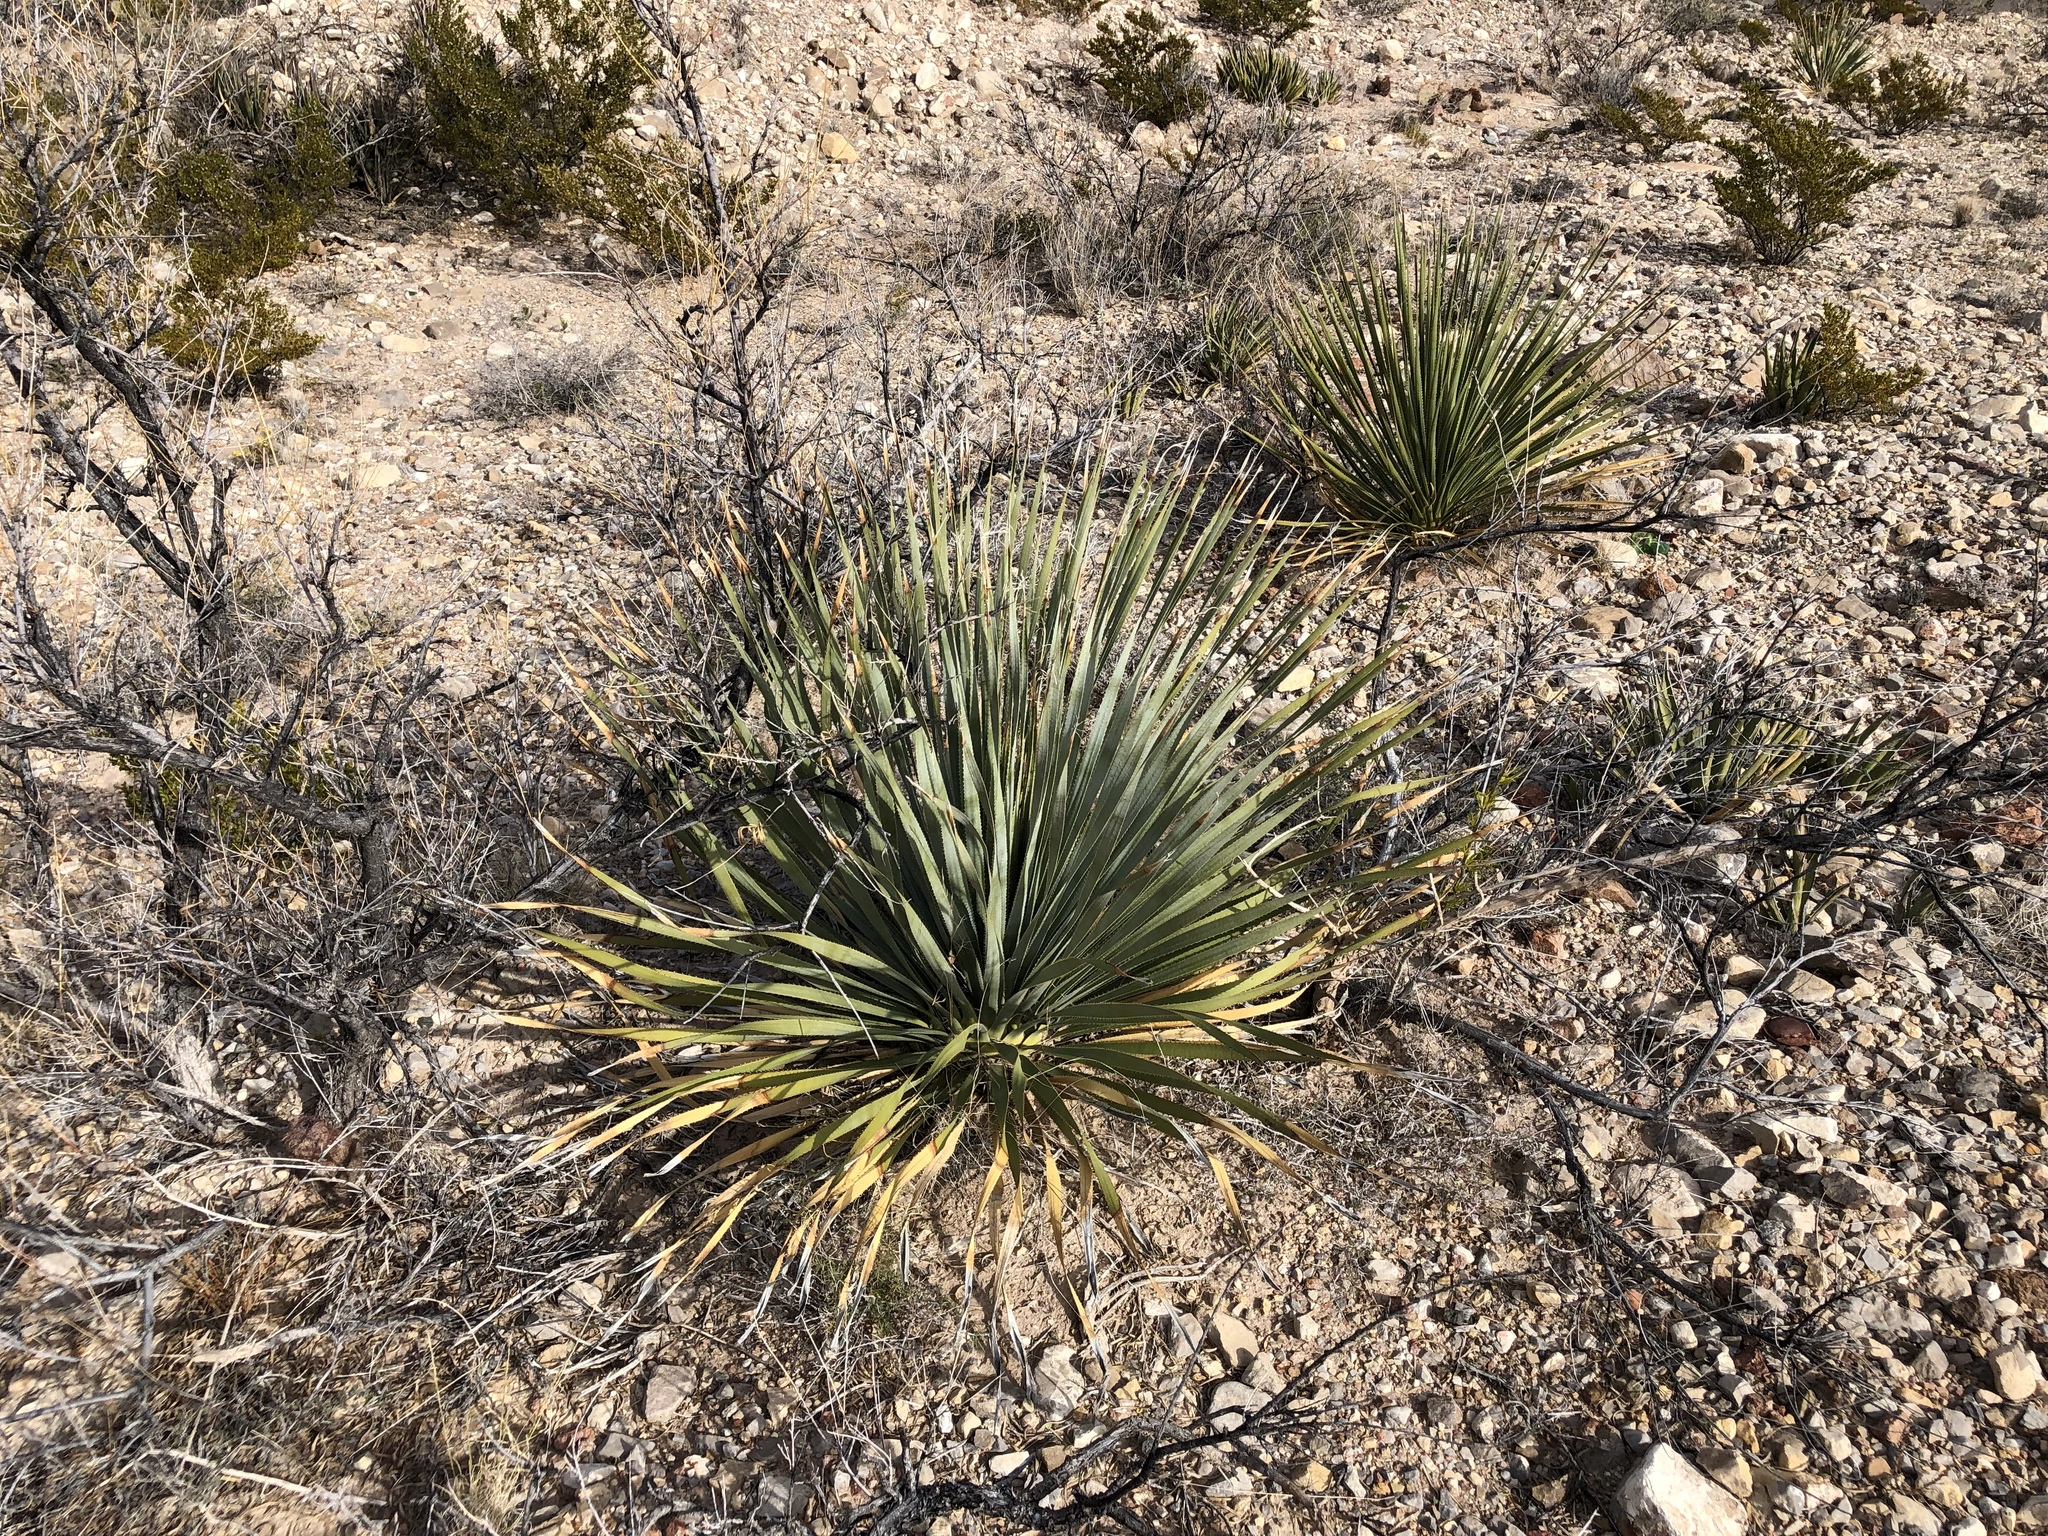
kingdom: Plantae
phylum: Tracheophyta
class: Liliopsida
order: Asparagales
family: Asparagaceae
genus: Dasylirion
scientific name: Dasylirion wheeleri
